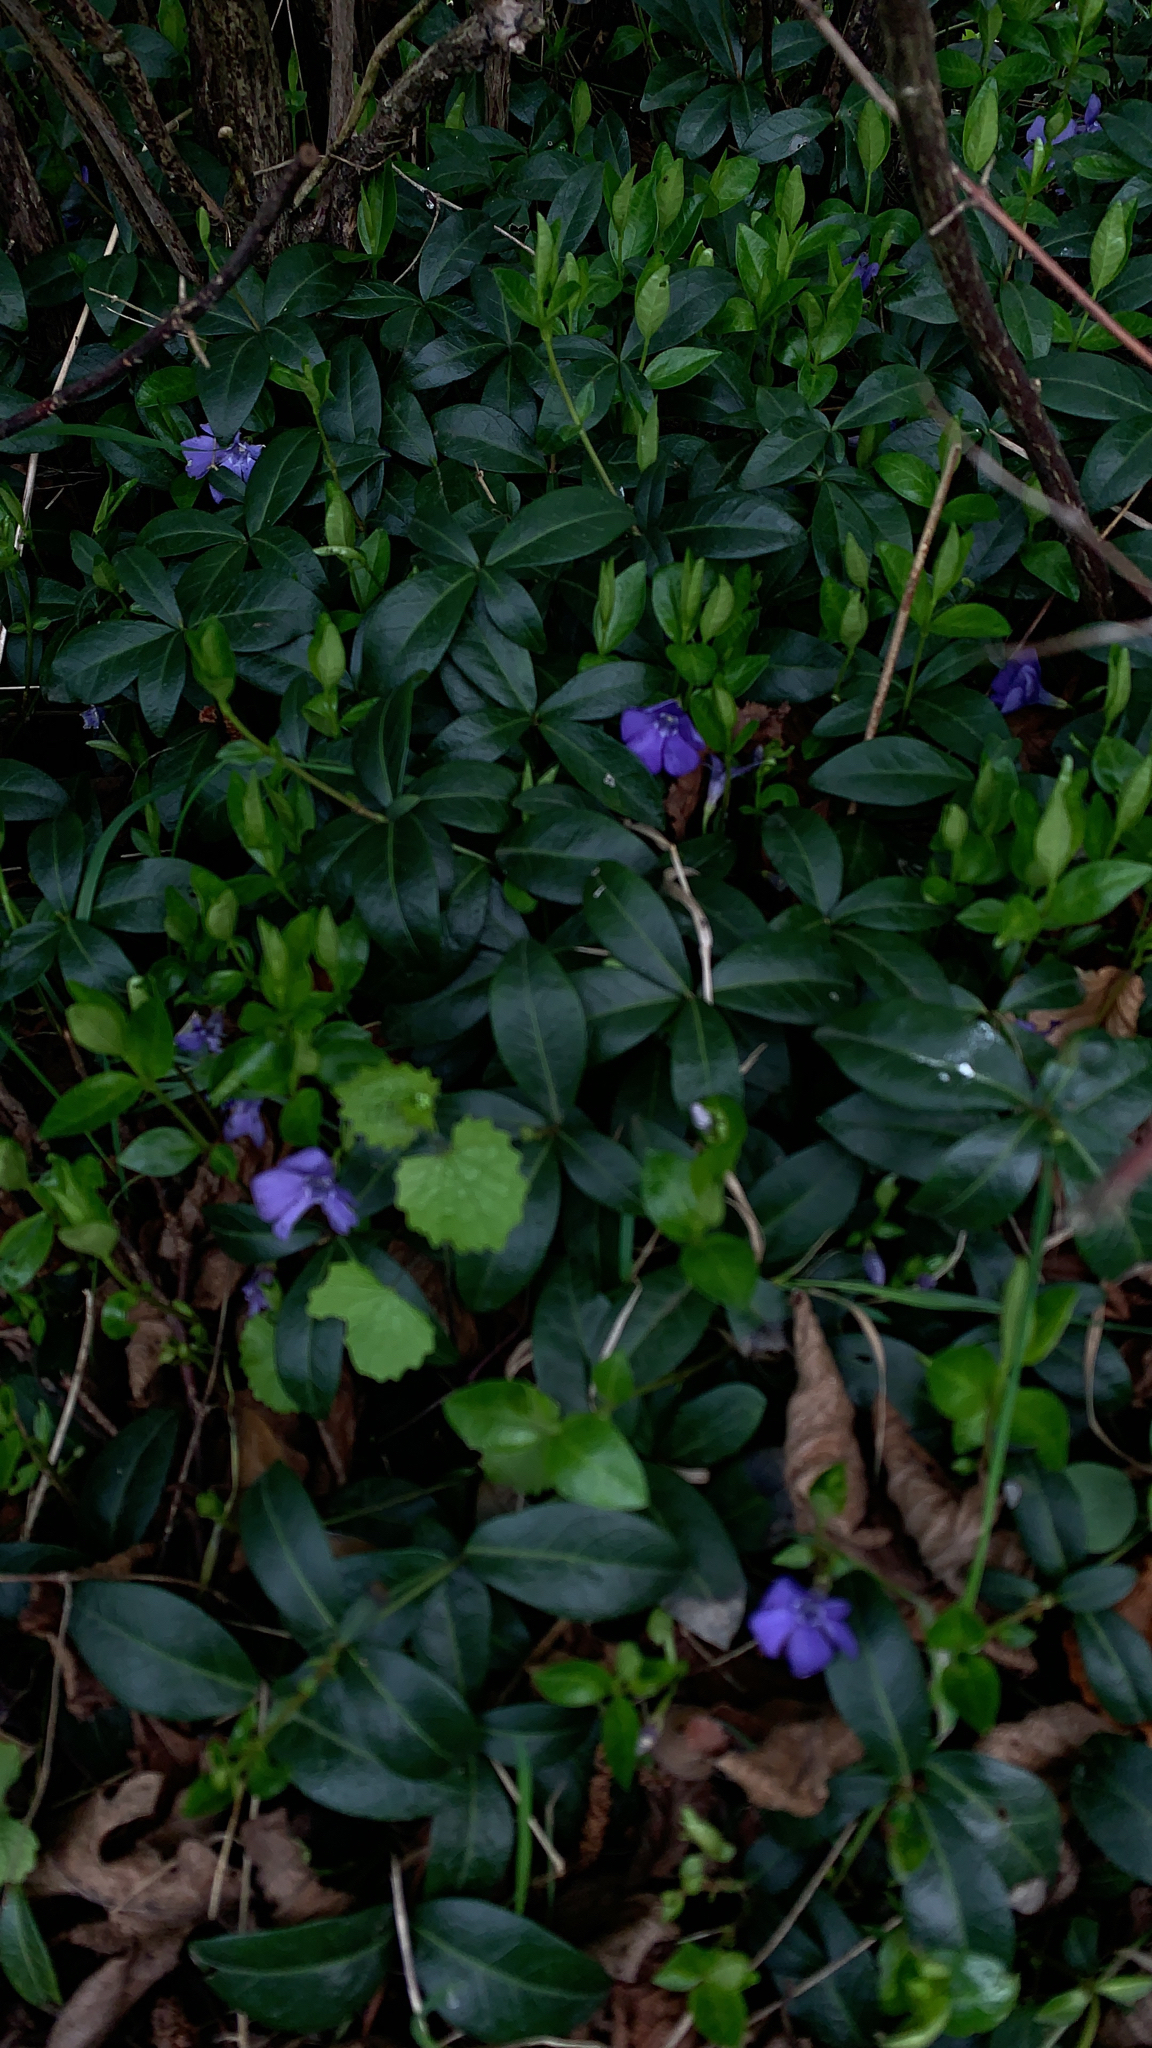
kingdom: Plantae
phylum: Tracheophyta
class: Magnoliopsida
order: Gentianales
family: Apocynaceae
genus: Vinca
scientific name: Vinca minor
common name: Lesser periwinkle
